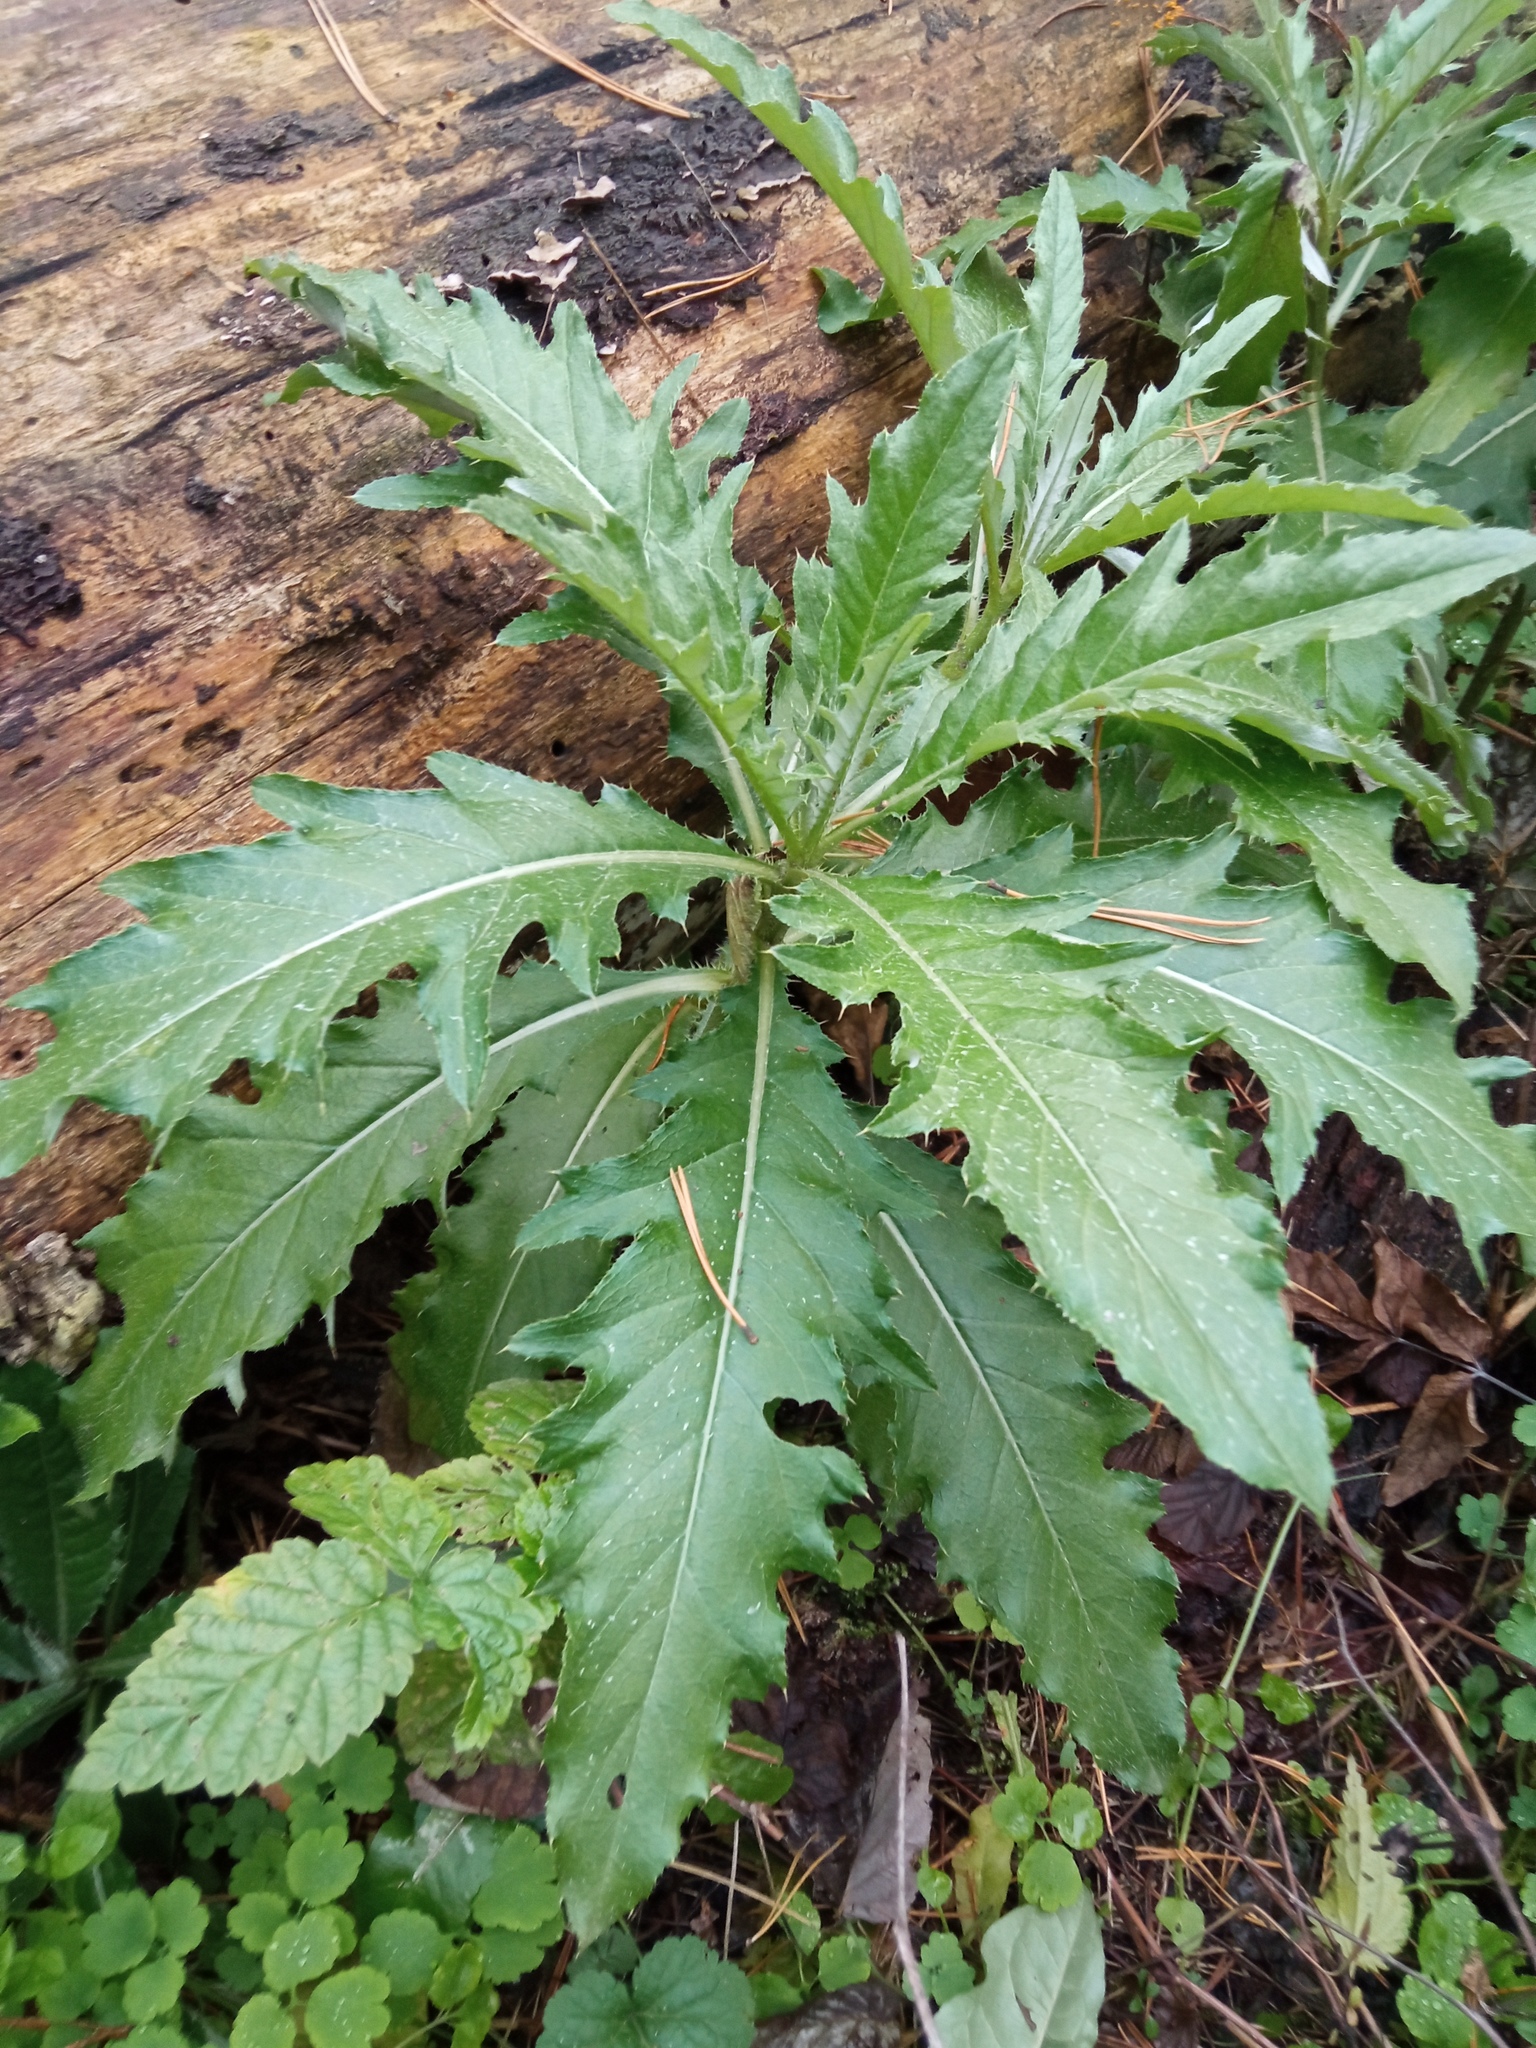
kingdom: Plantae
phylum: Tracheophyta
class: Magnoliopsida
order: Asterales
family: Asteraceae
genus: Cirsium
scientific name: Cirsium arvense
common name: Creeping thistle
